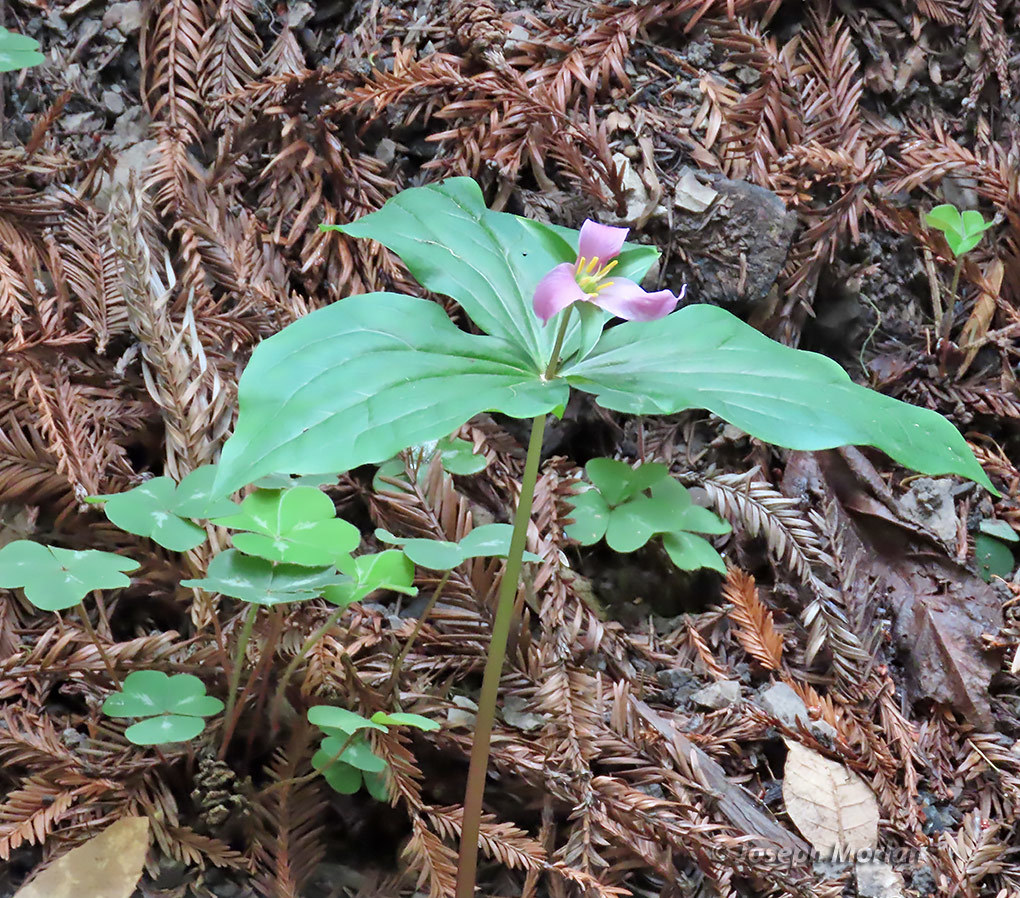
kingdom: Plantae
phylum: Tracheophyta
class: Liliopsida
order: Liliales
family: Melanthiaceae
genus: Trillium
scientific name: Trillium ovatum
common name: Pacific trillium
